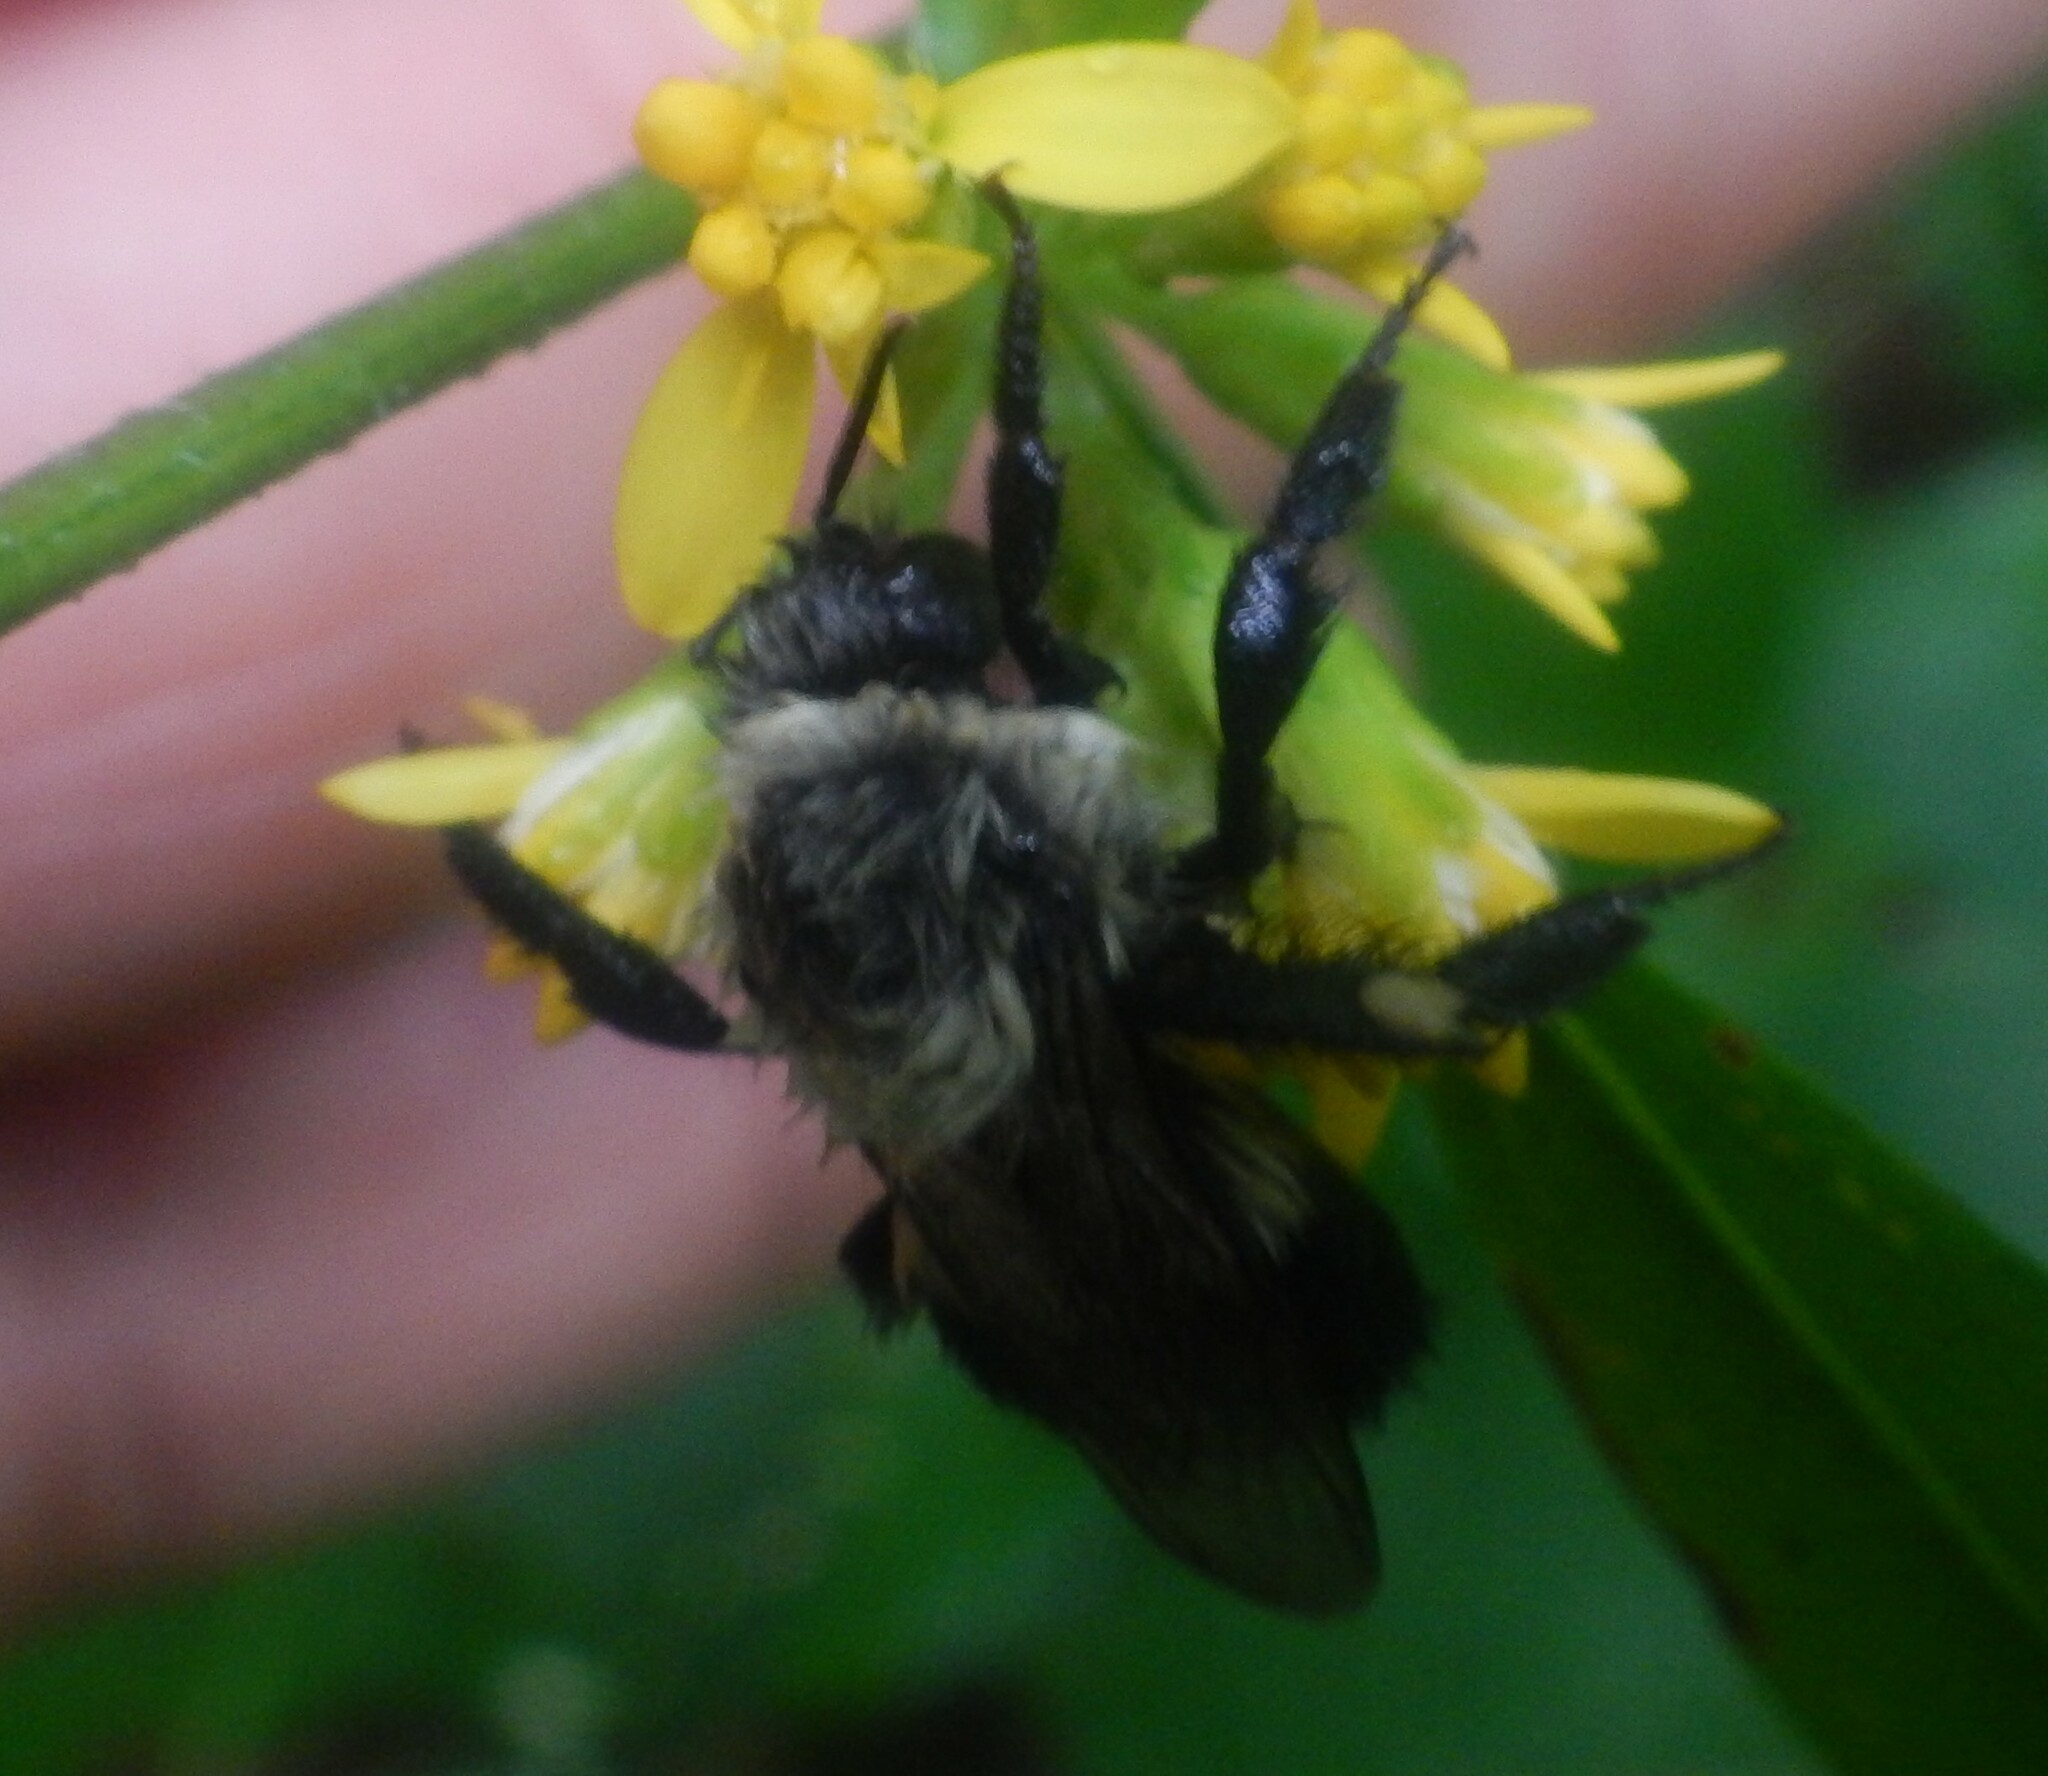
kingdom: Animalia
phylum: Arthropoda
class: Insecta
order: Hymenoptera
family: Apidae
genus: Bombus
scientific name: Bombus impatiens
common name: Common eastern bumble bee
